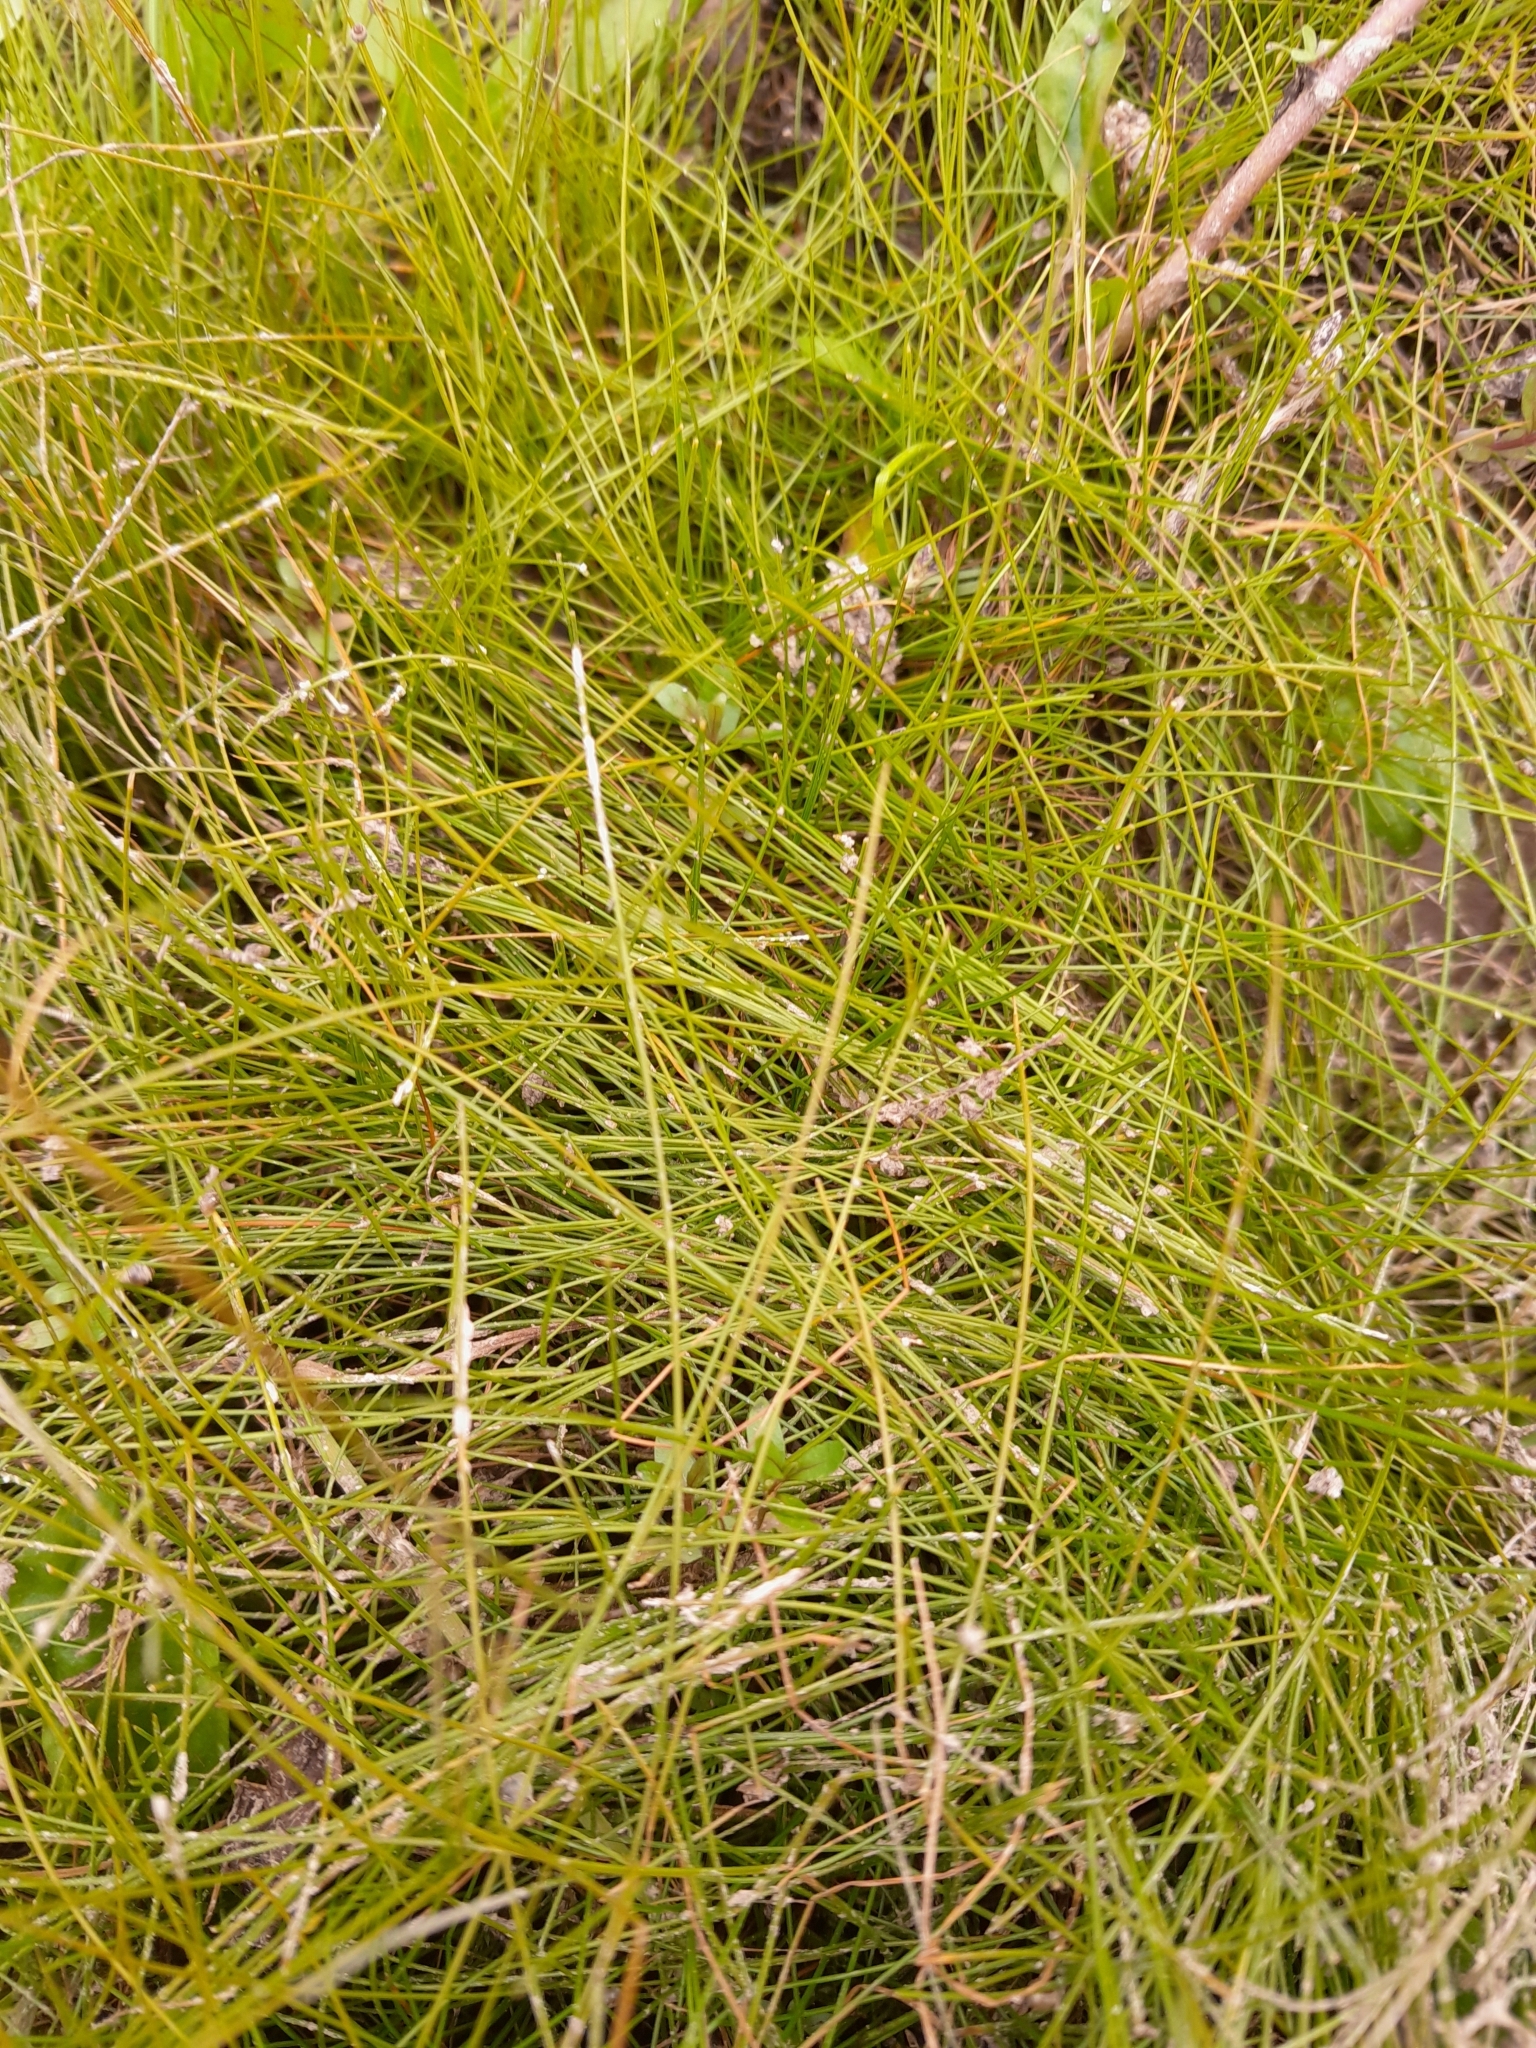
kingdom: Plantae
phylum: Tracheophyta
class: Liliopsida
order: Poales
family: Cyperaceae
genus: Eleocharis
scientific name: Eleocharis acicularis
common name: Needle spike-rush
